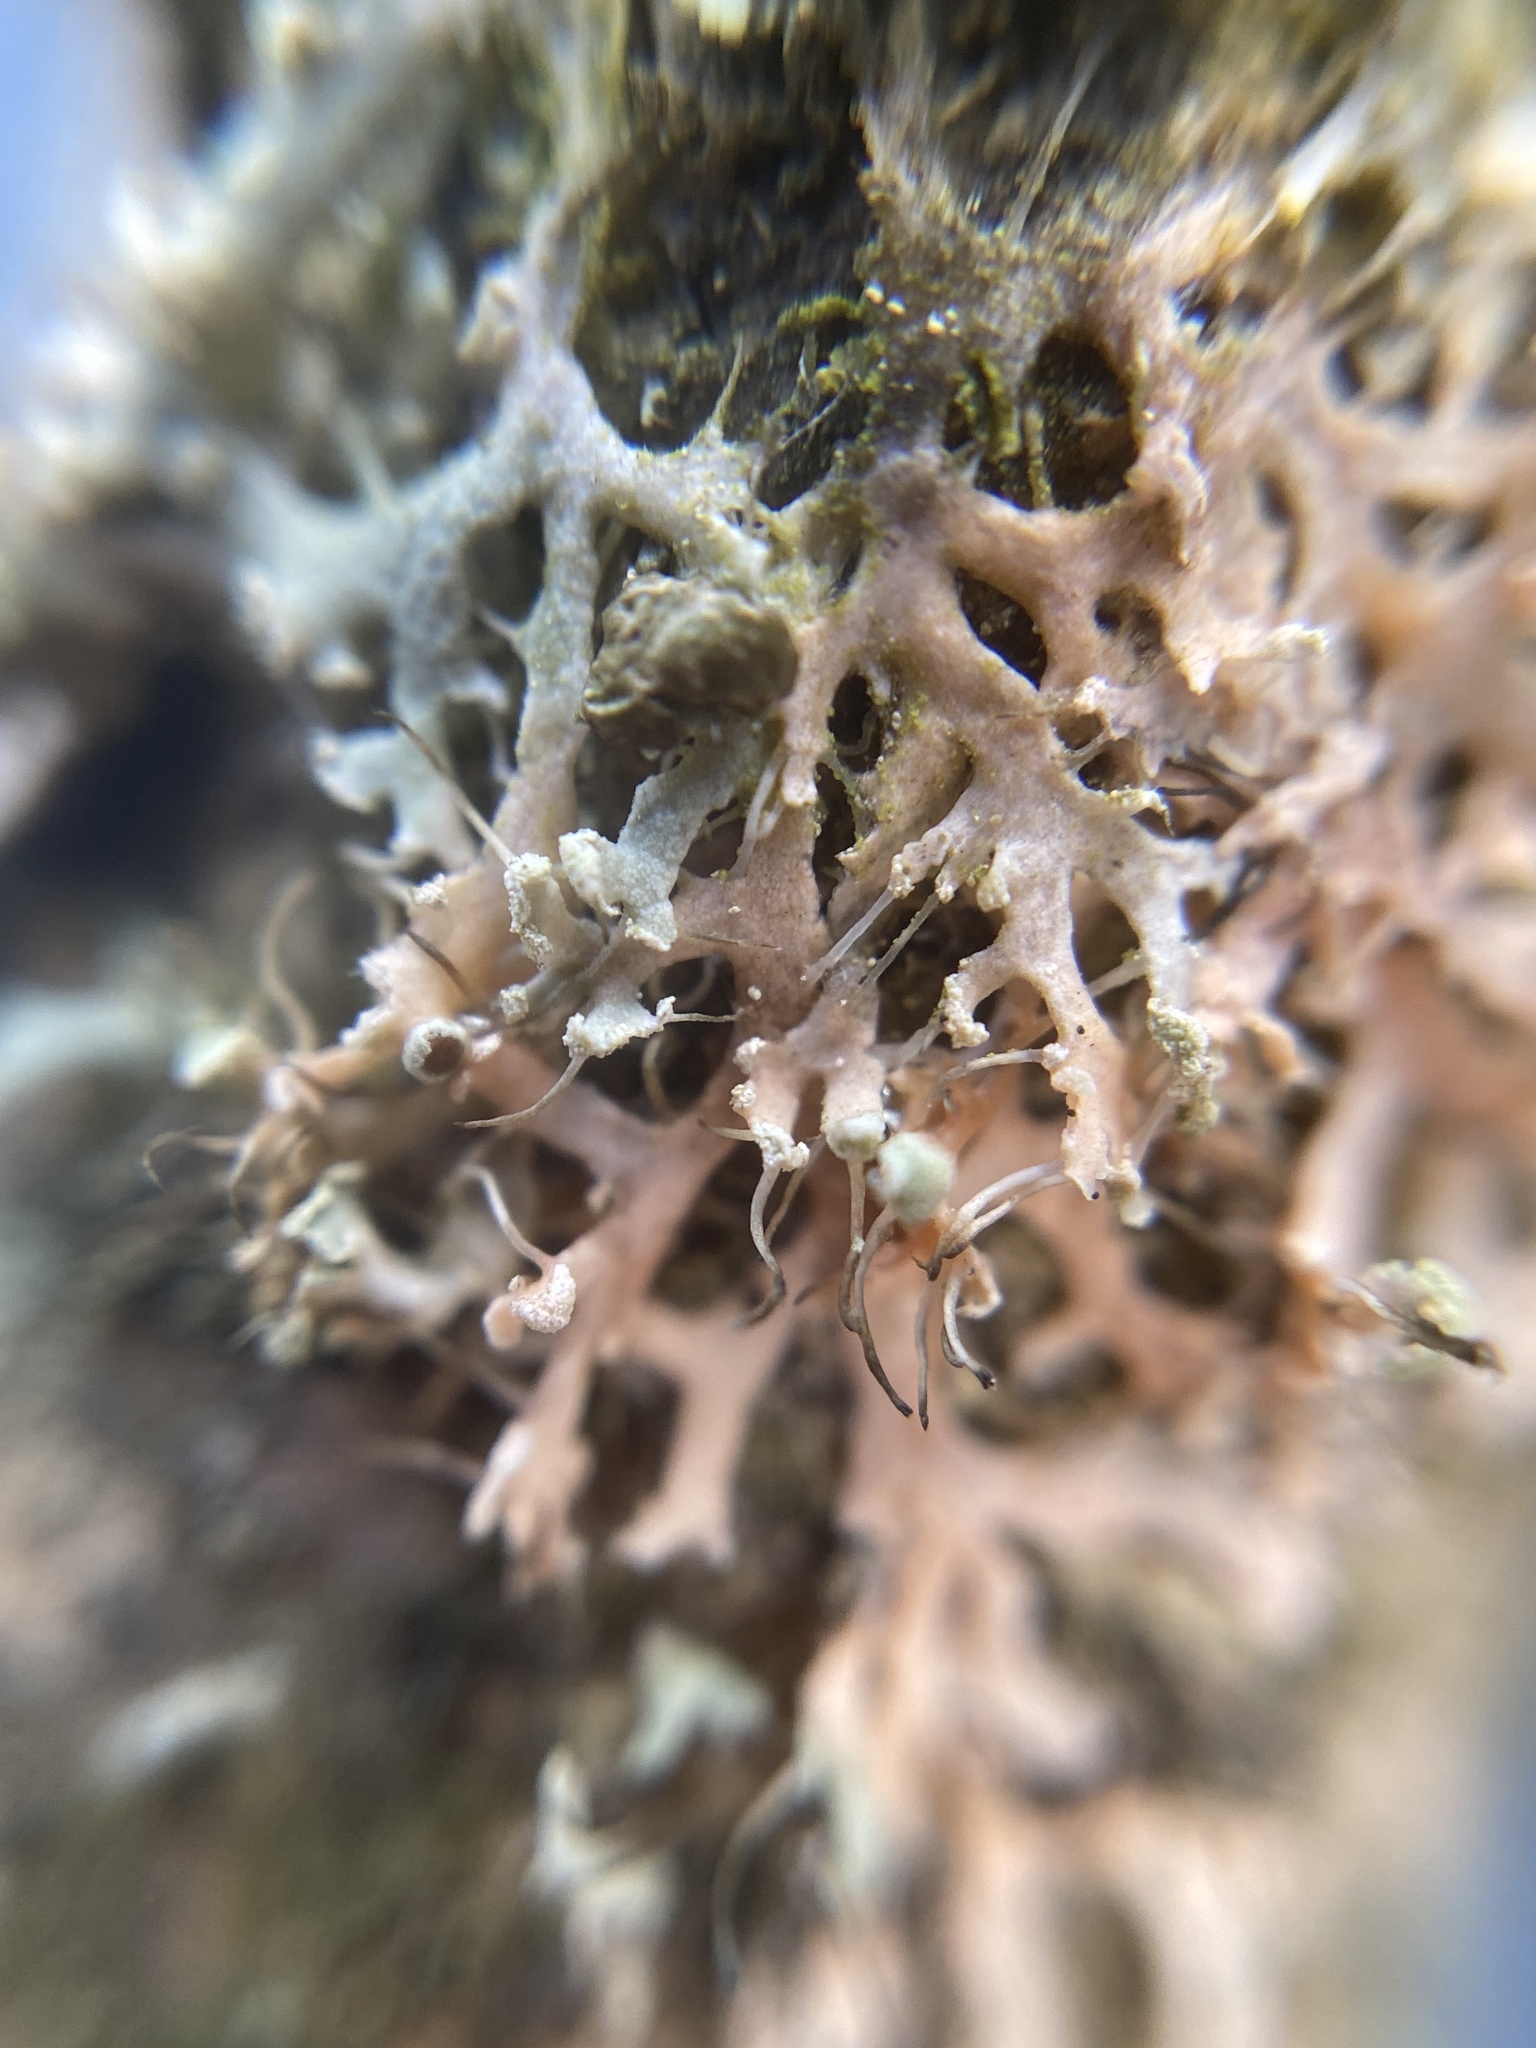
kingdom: Fungi
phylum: Ascomycota
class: Lecanoromycetes
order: Caliciales
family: Physciaceae
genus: Physcia
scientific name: Physcia tenella
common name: Fringed rosette lichen
